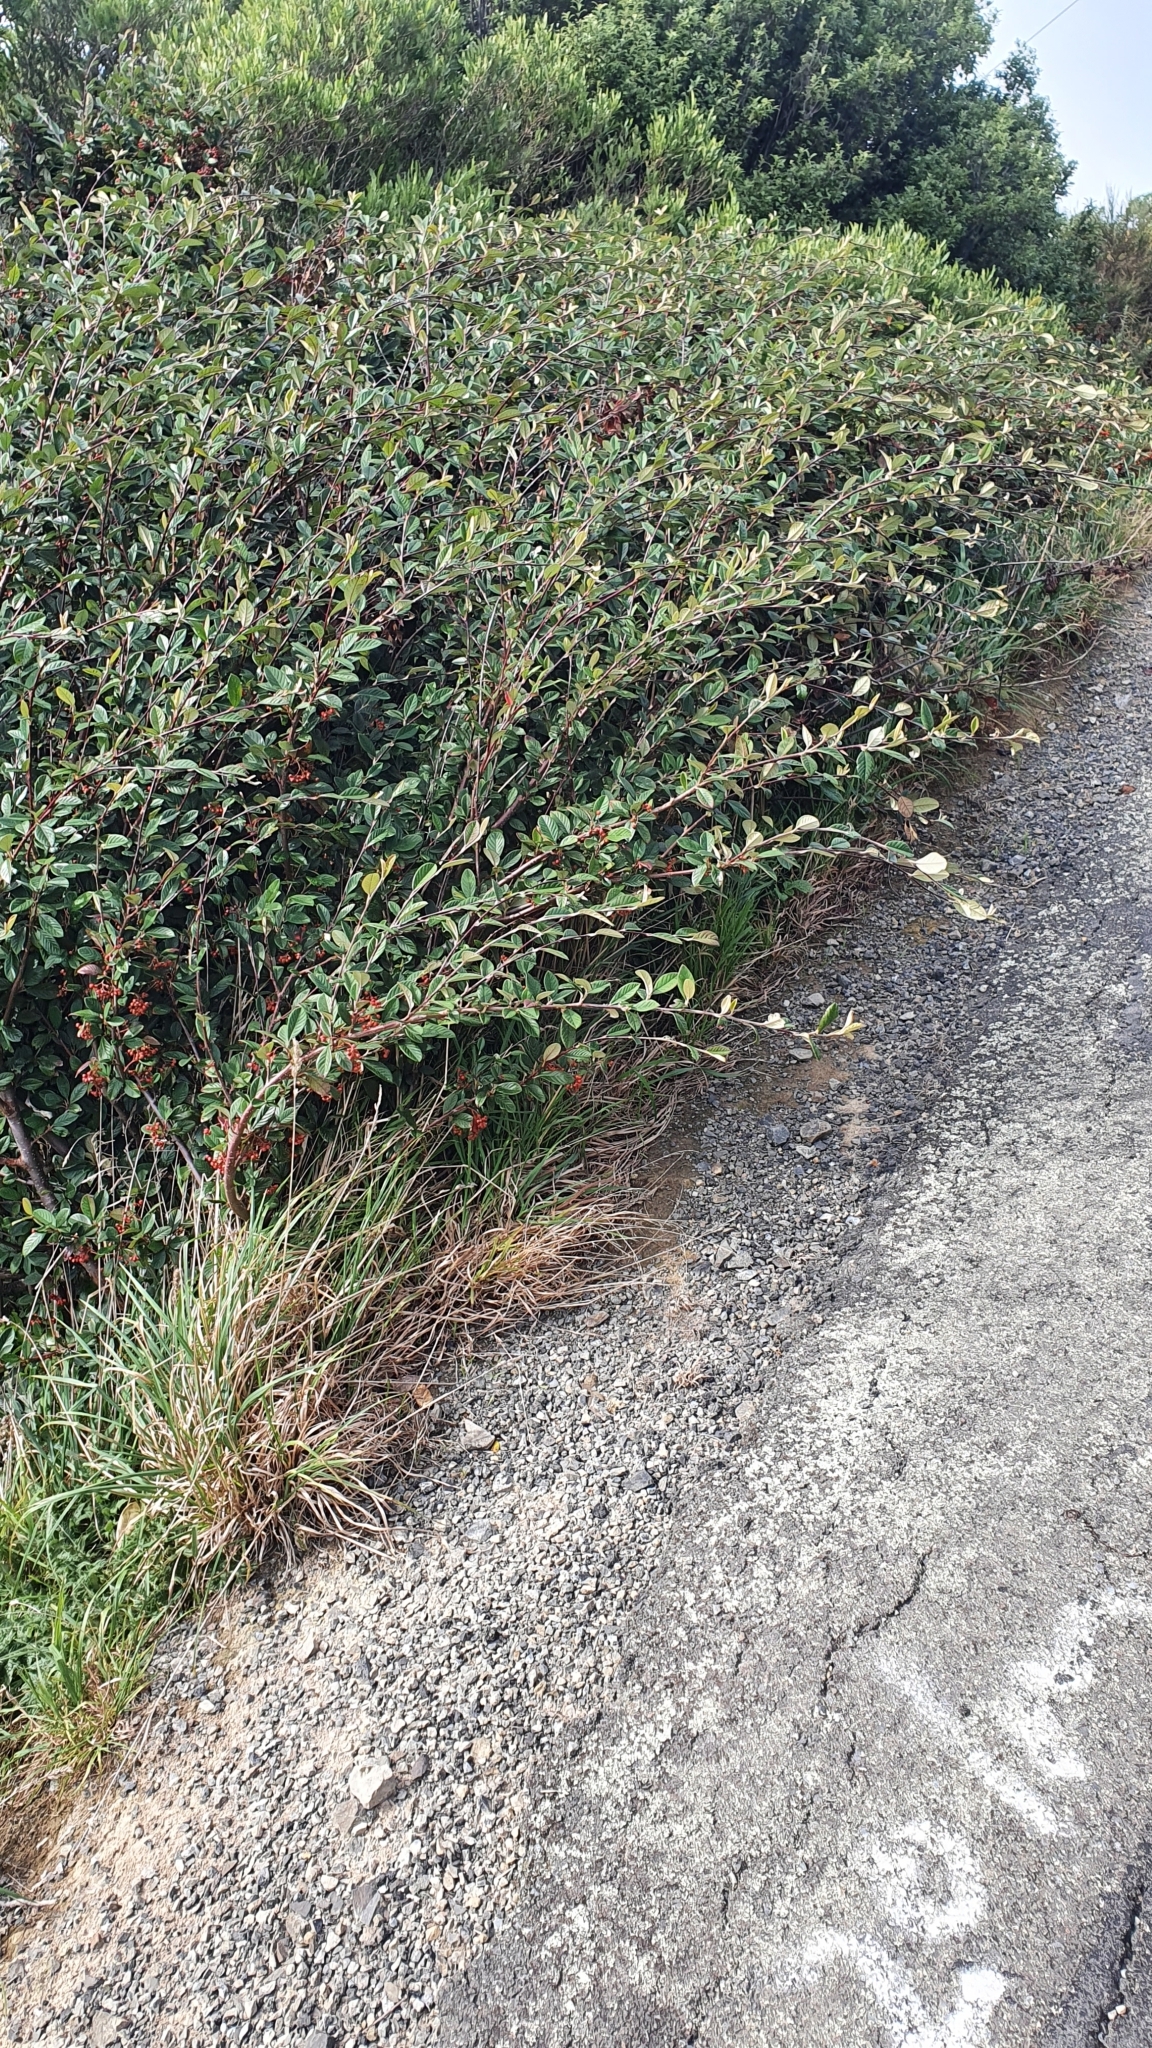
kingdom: Plantae
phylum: Tracheophyta
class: Magnoliopsida
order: Rosales
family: Rosaceae
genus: Cotoneaster
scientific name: Cotoneaster coriaceus
